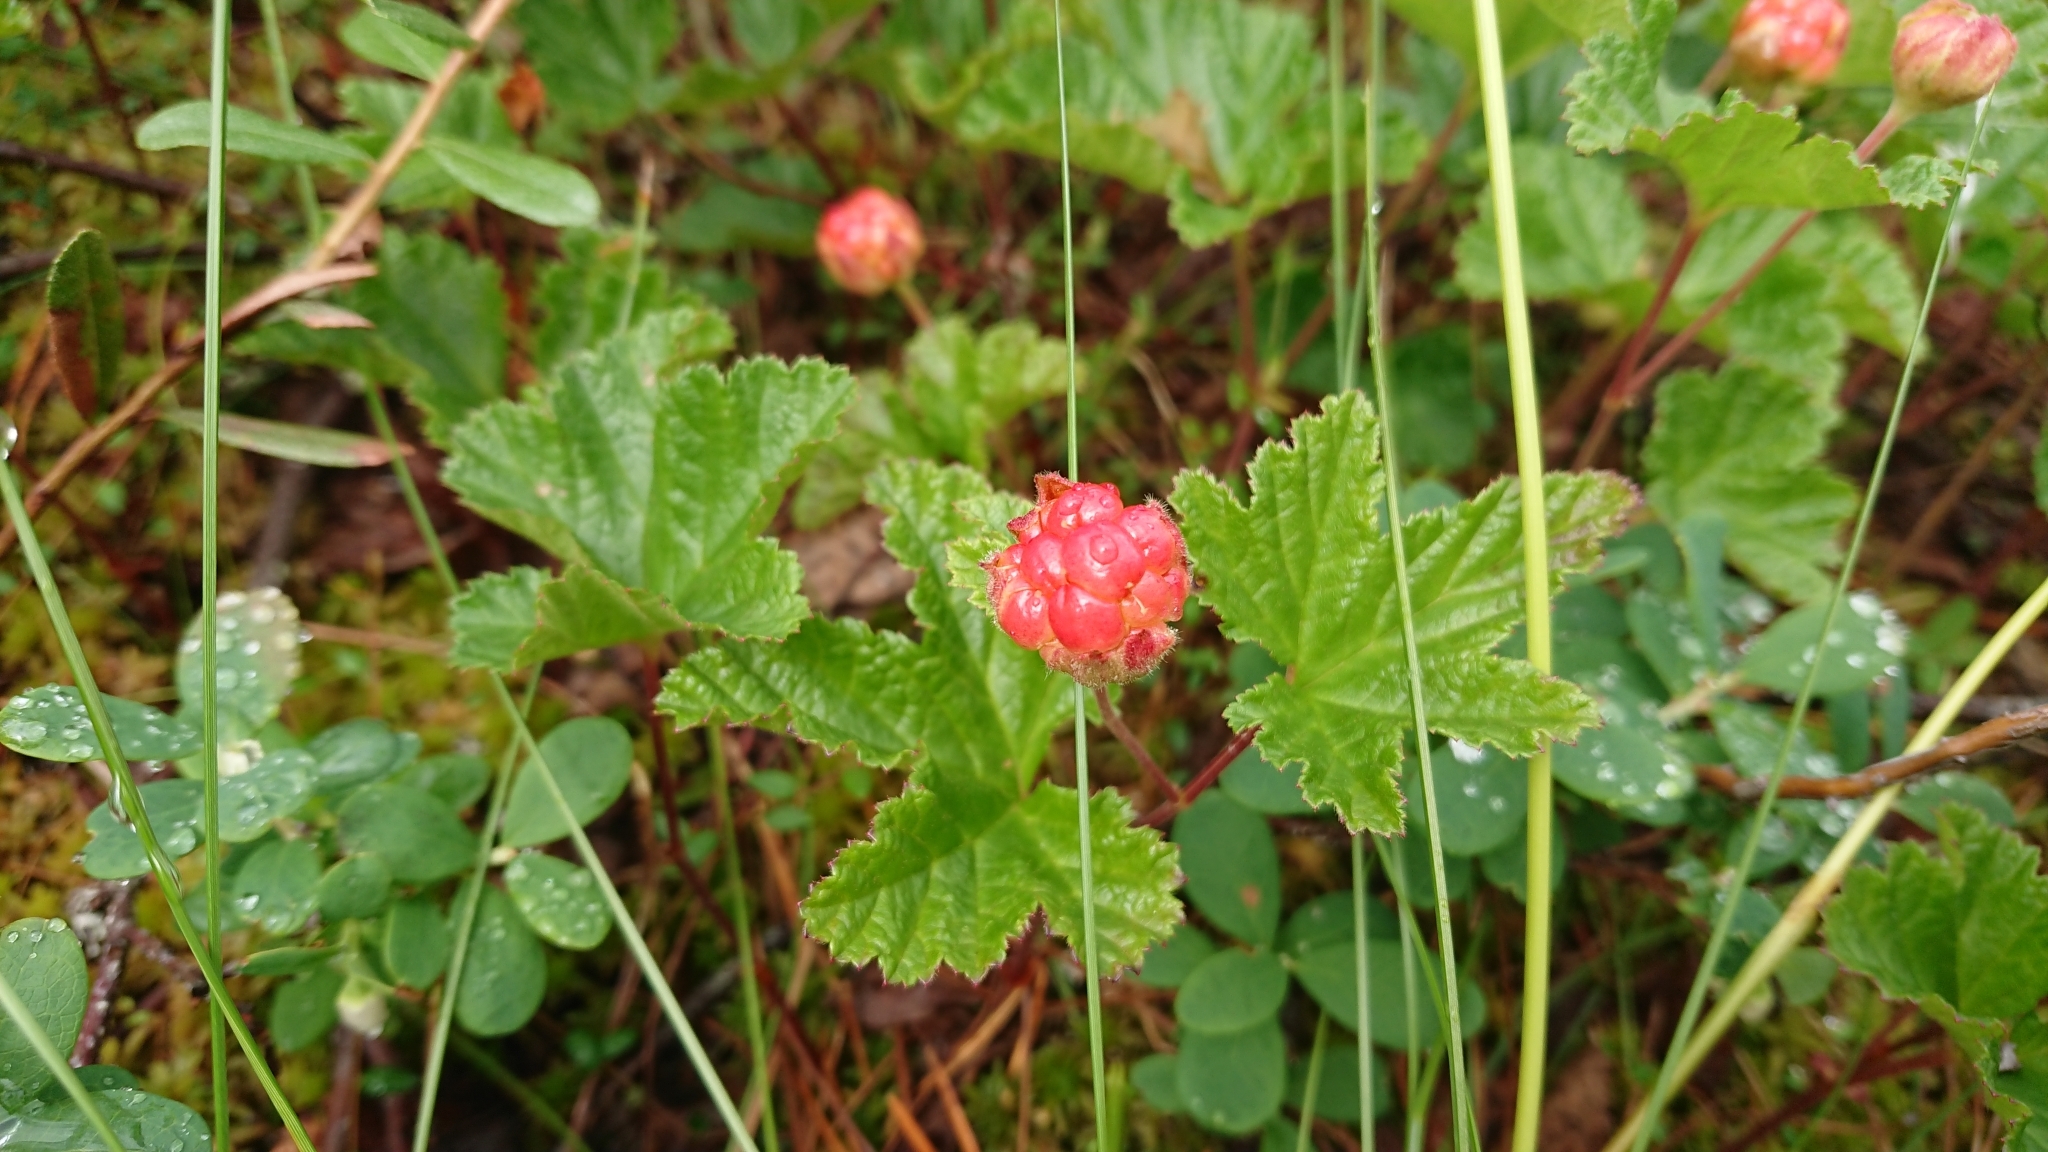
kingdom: Plantae
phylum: Tracheophyta
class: Magnoliopsida
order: Rosales
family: Rosaceae
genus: Rubus
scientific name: Rubus chamaemorus
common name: Cloudberry
